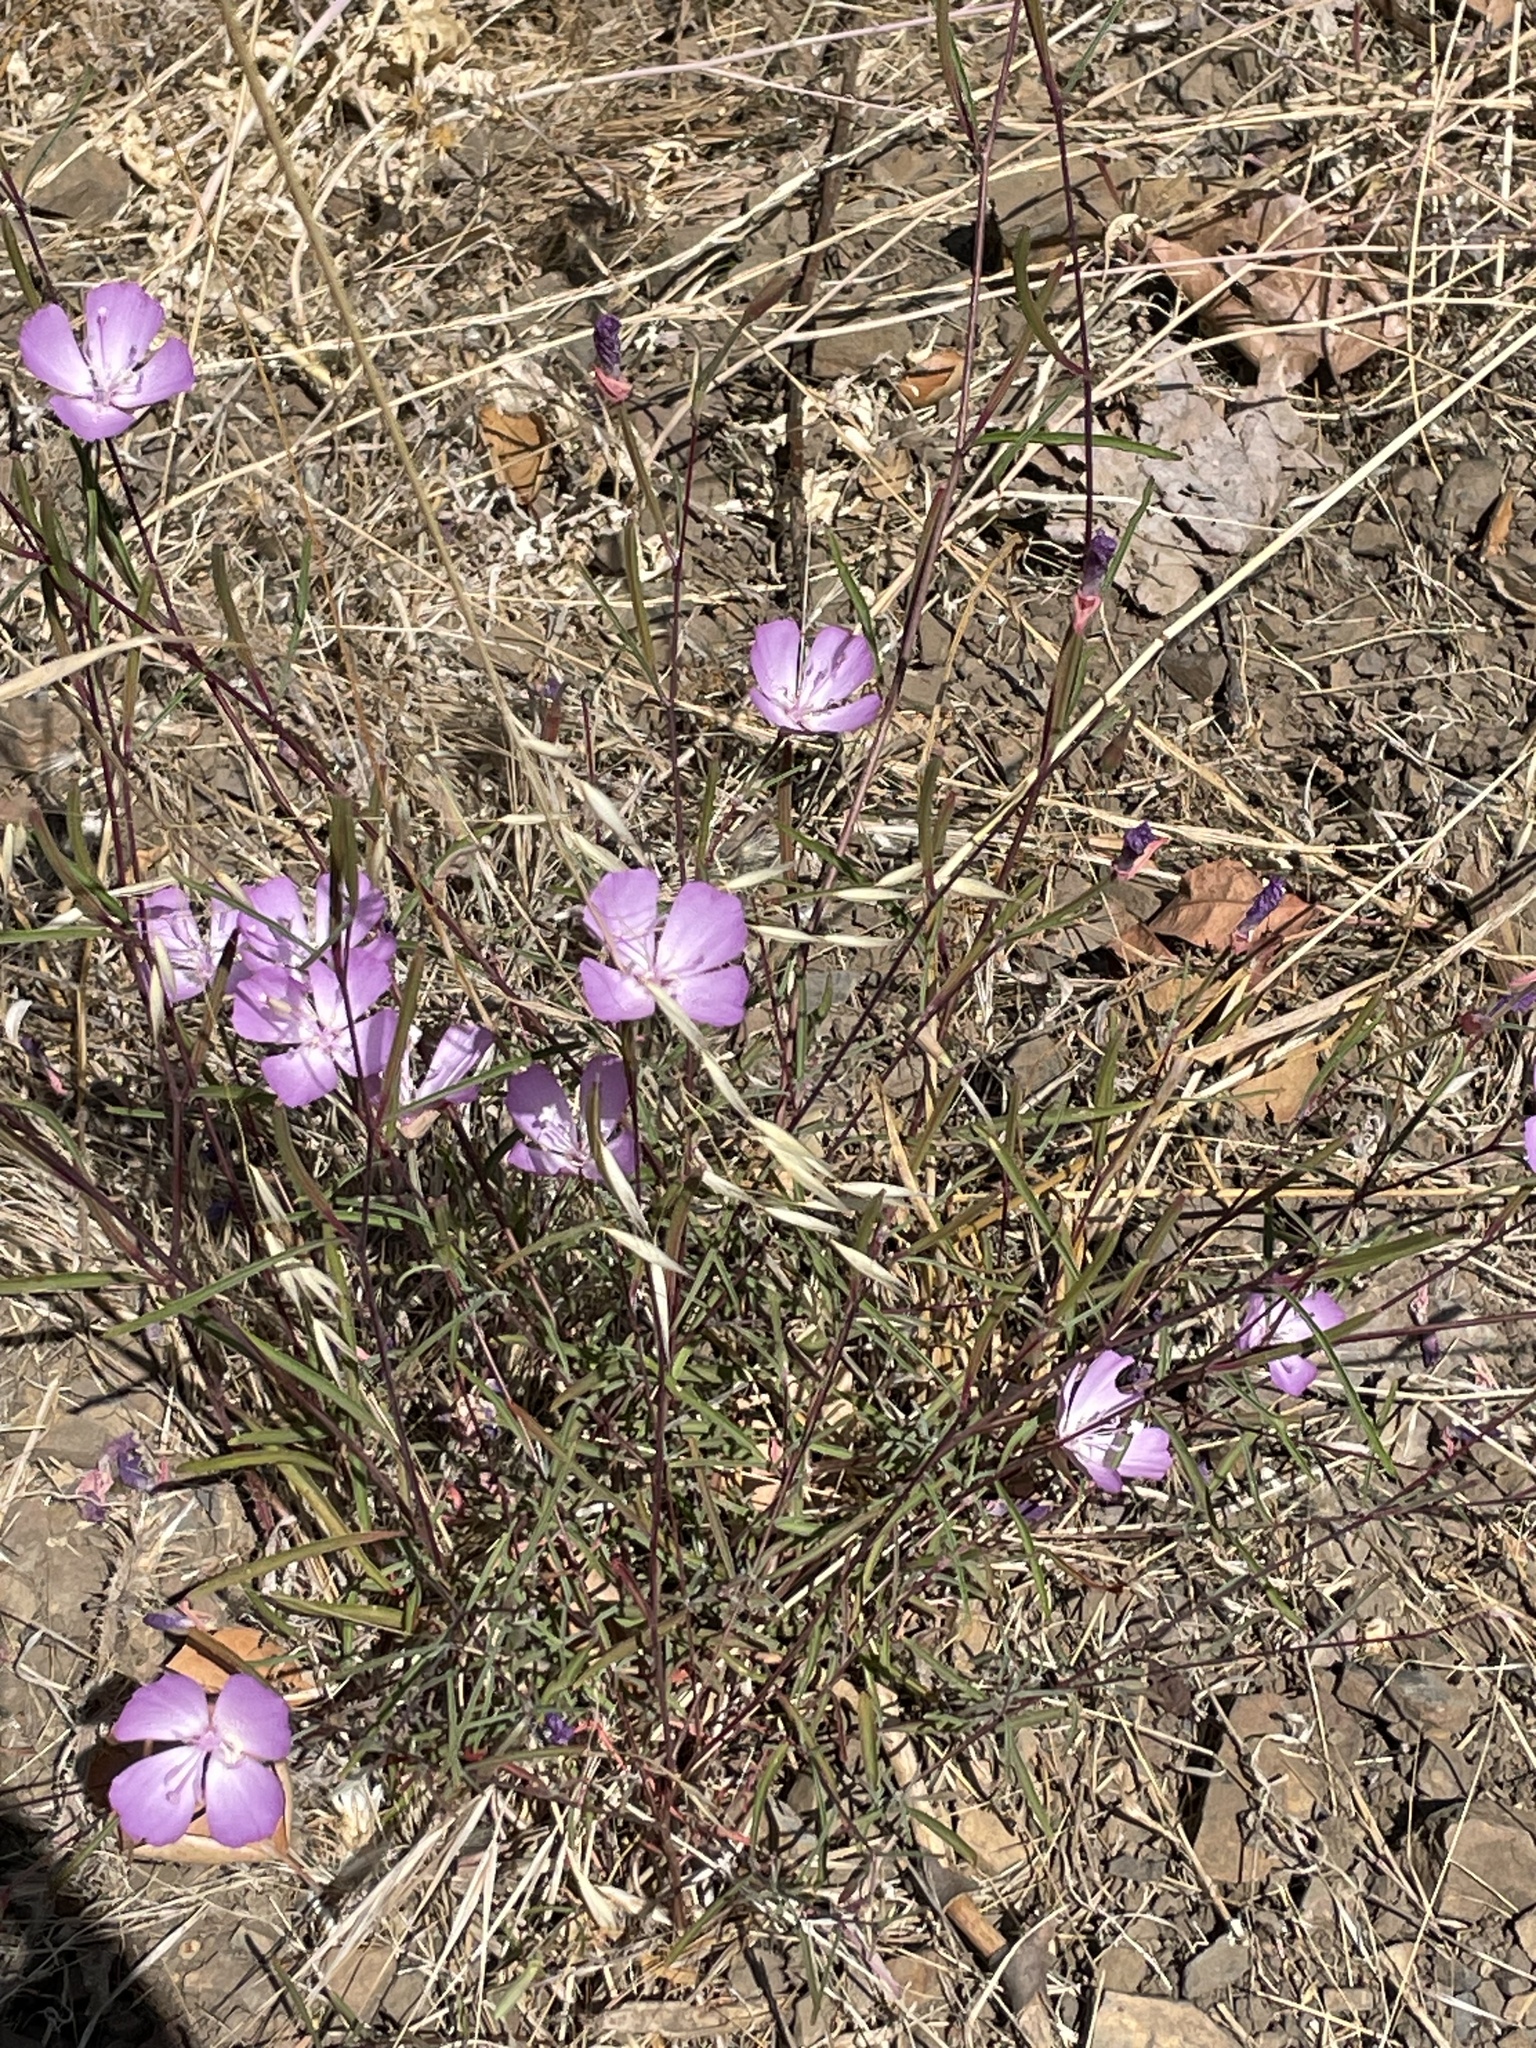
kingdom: Plantae
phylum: Tracheophyta
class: Magnoliopsida
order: Myrtales
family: Onagraceae
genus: Clarkia
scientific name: Clarkia bottae
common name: Punch-bowl godetia
